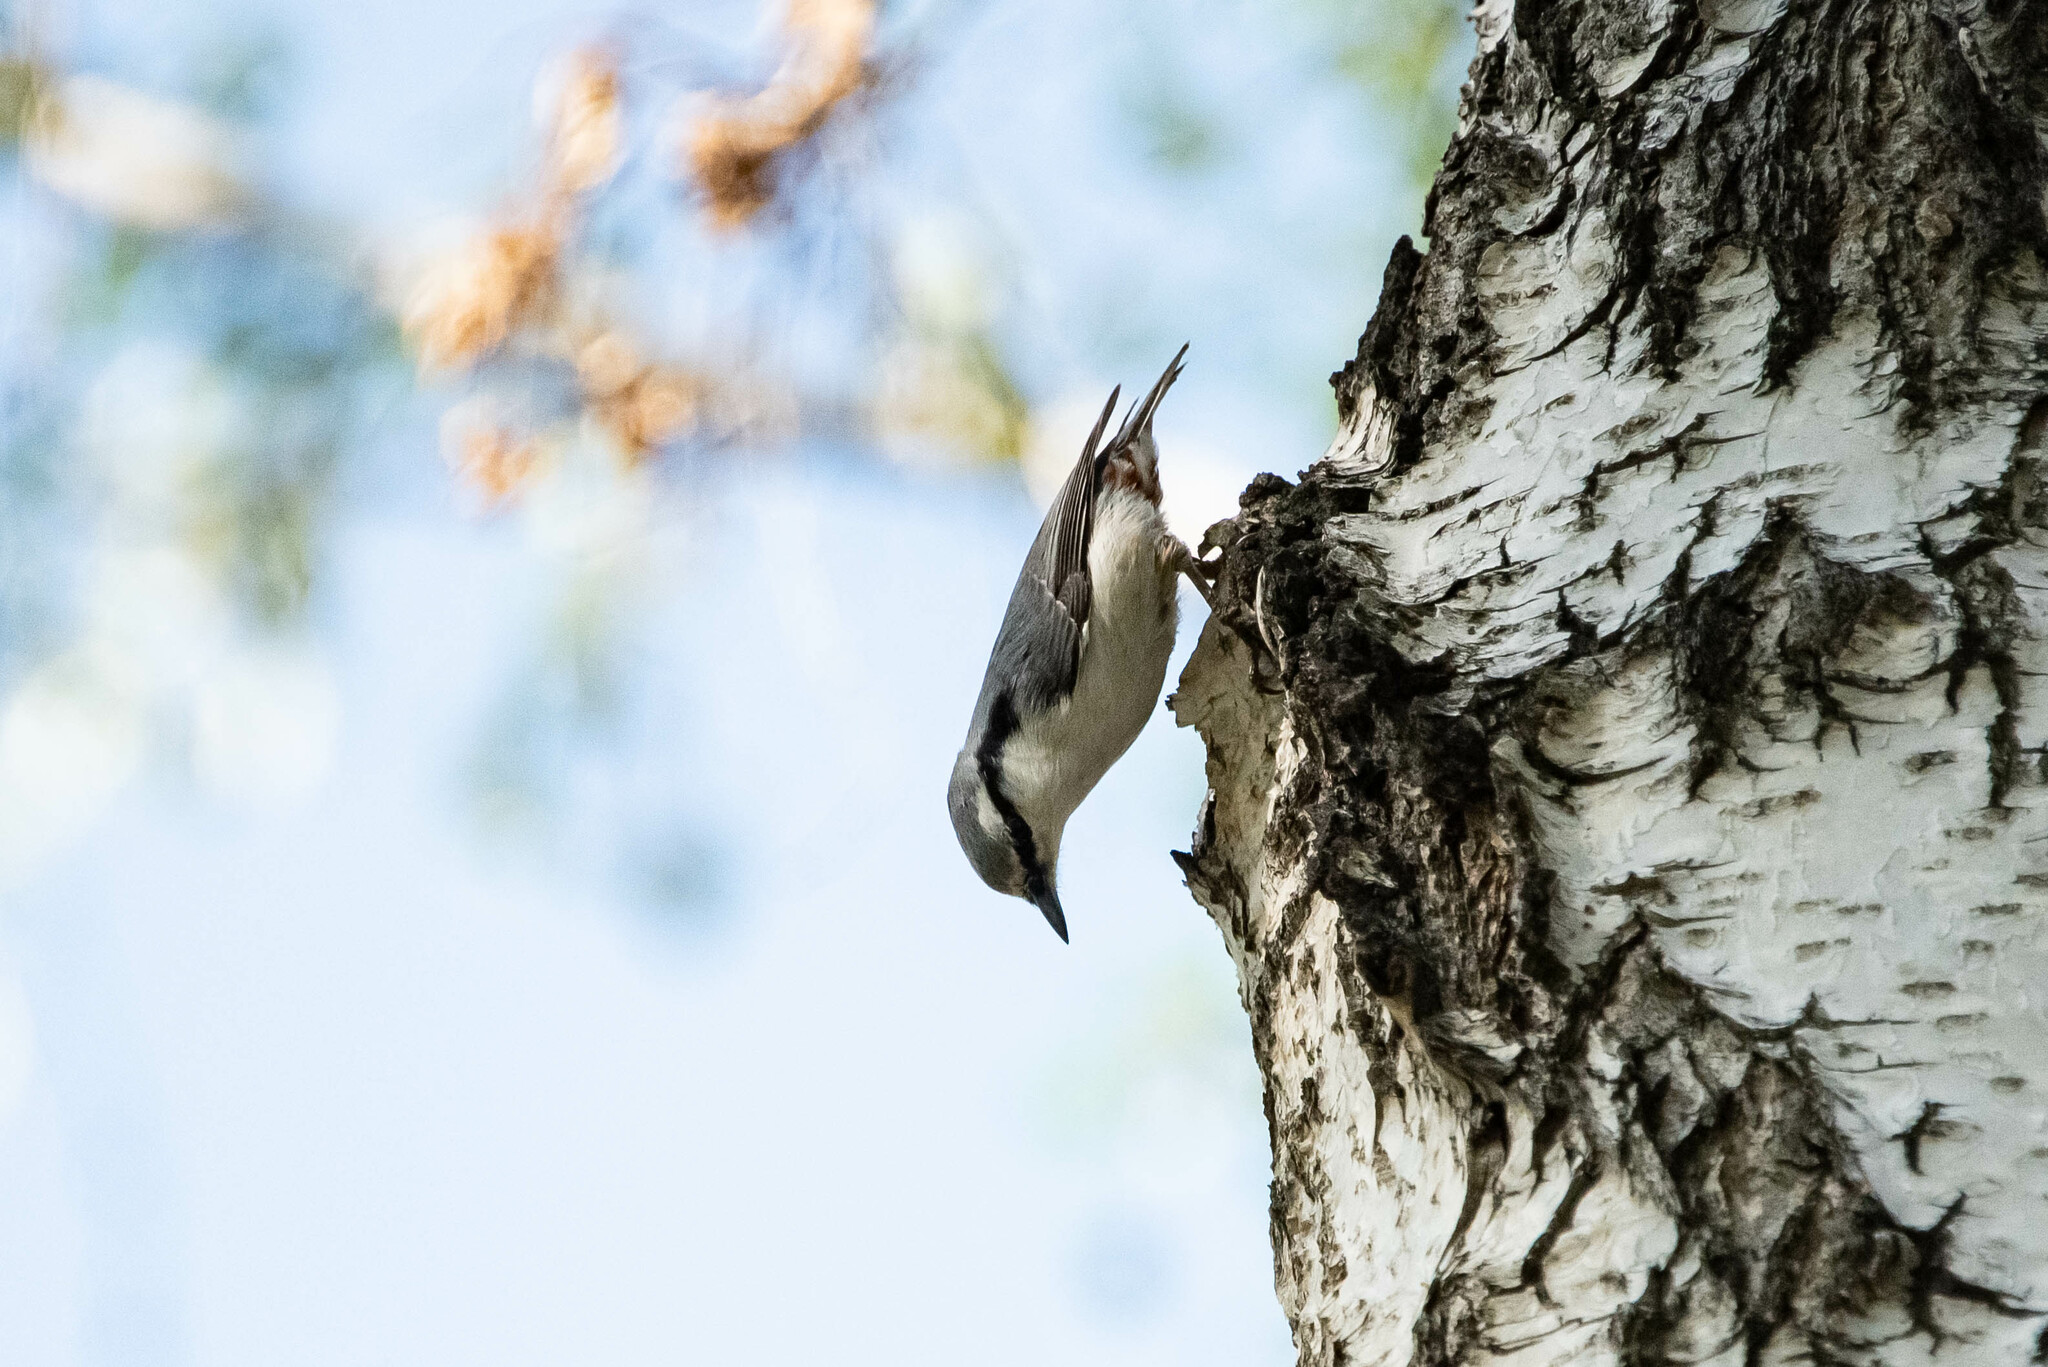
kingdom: Animalia
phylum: Chordata
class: Aves
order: Passeriformes
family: Sittidae
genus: Sitta
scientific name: Sitta europaea
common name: Eurasian nuthatch
